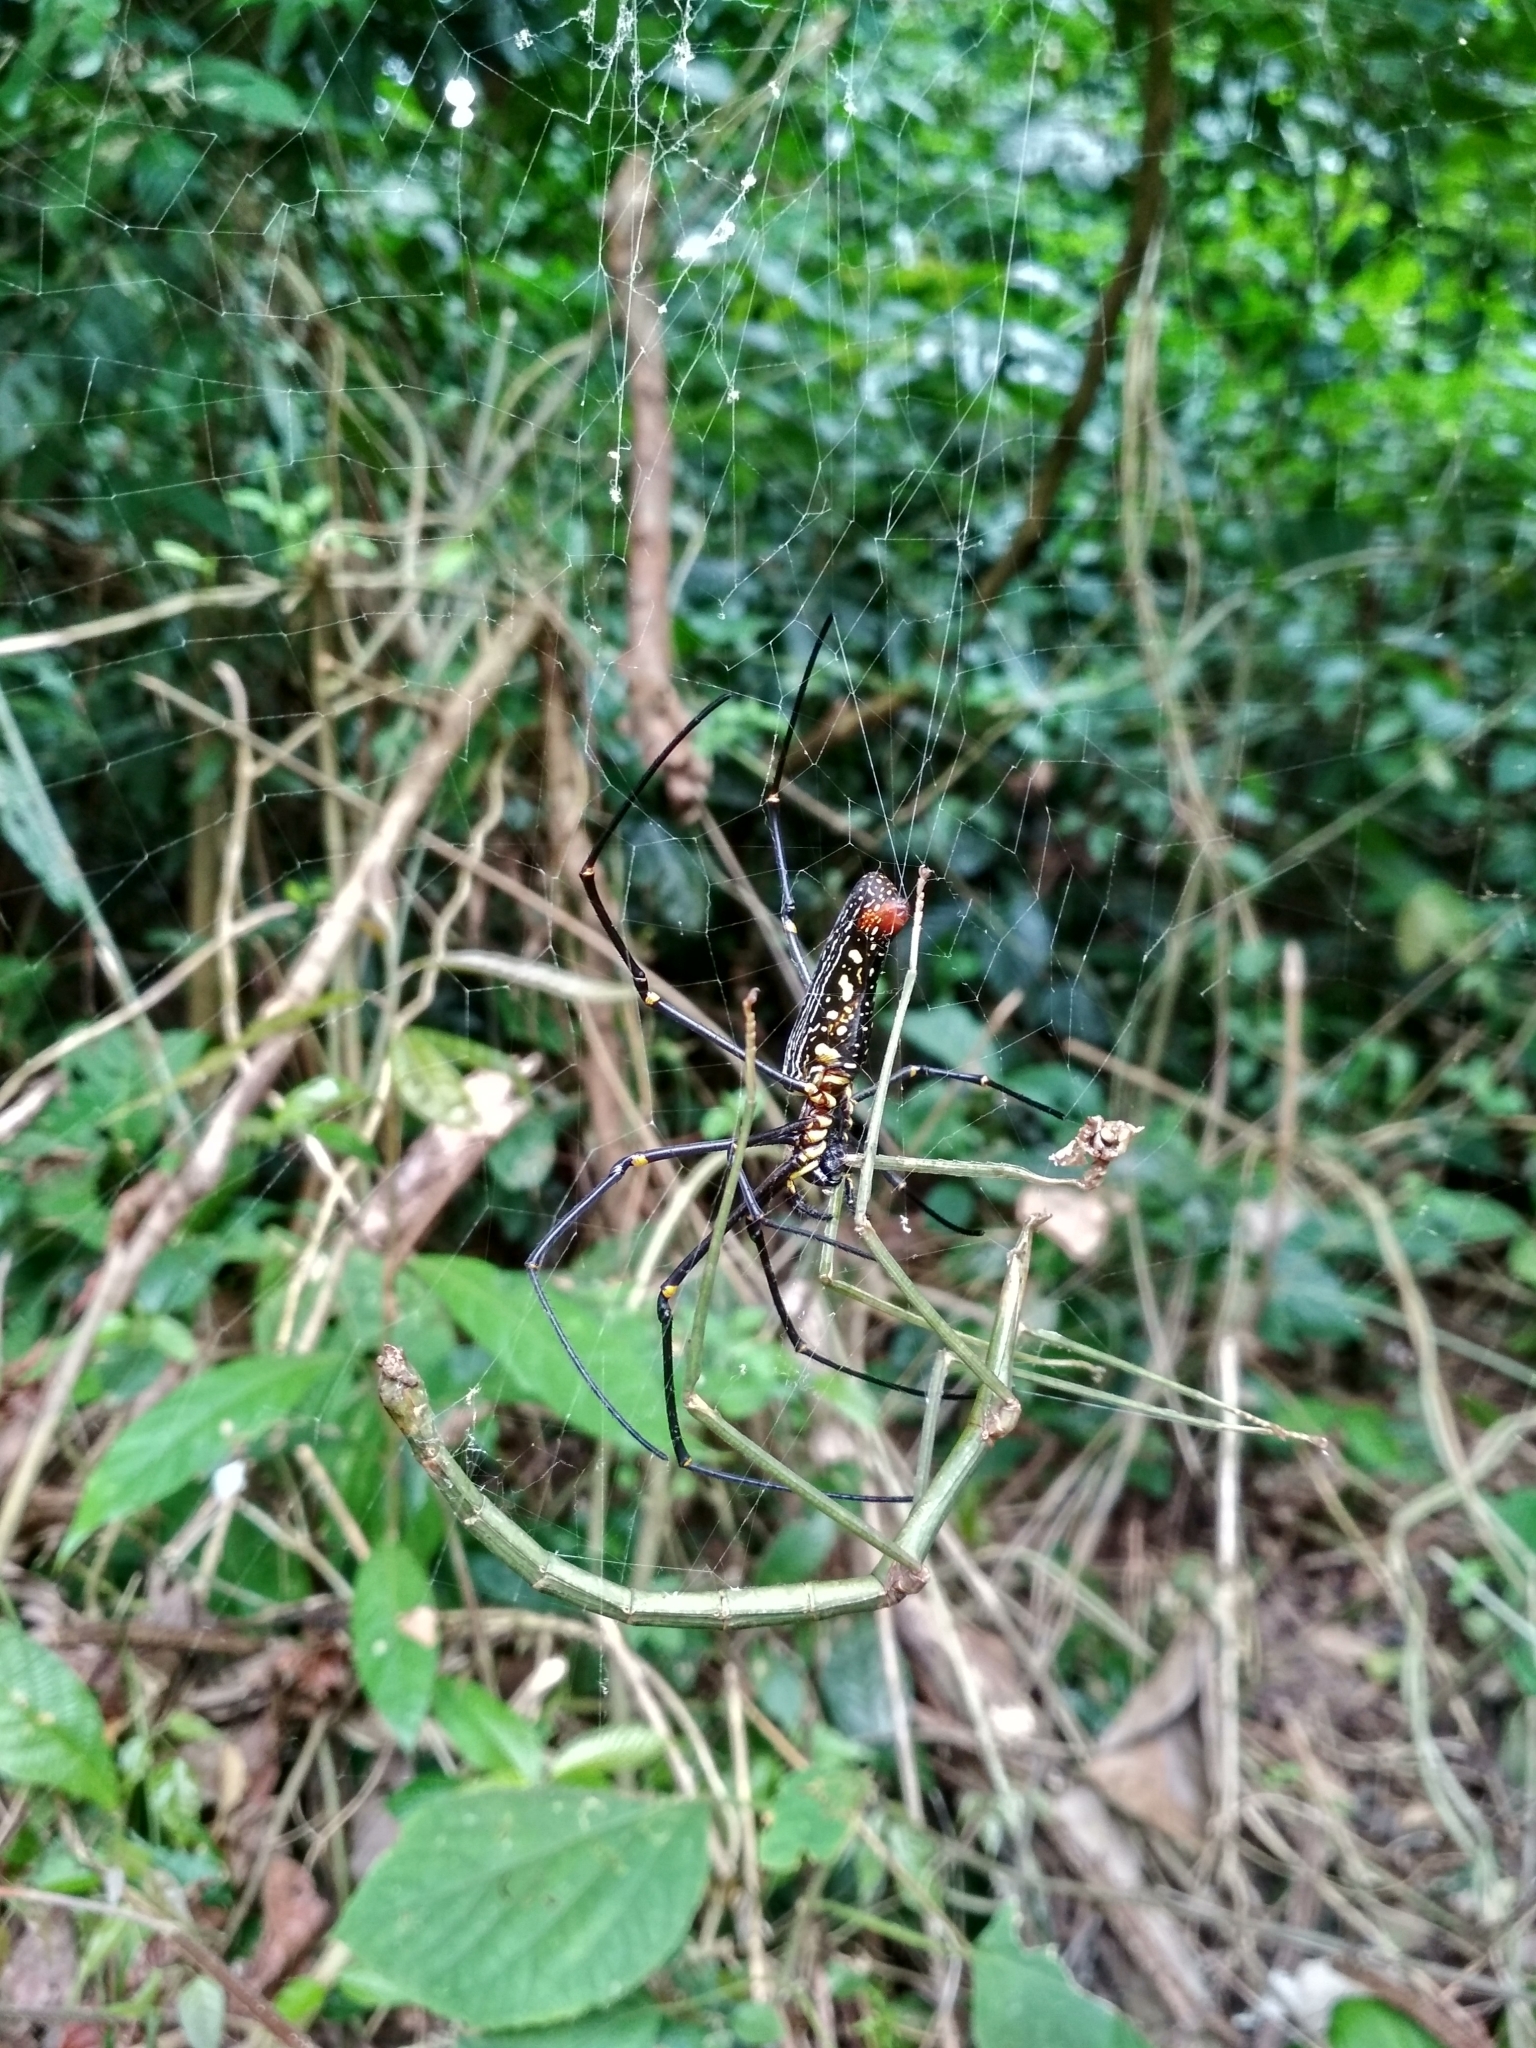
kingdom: Animalia
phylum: Arthropoda
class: Arachnida
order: Araneae
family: Araneidae
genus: Nephila
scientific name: Nephila pilipes
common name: Giant golden orb weaver
